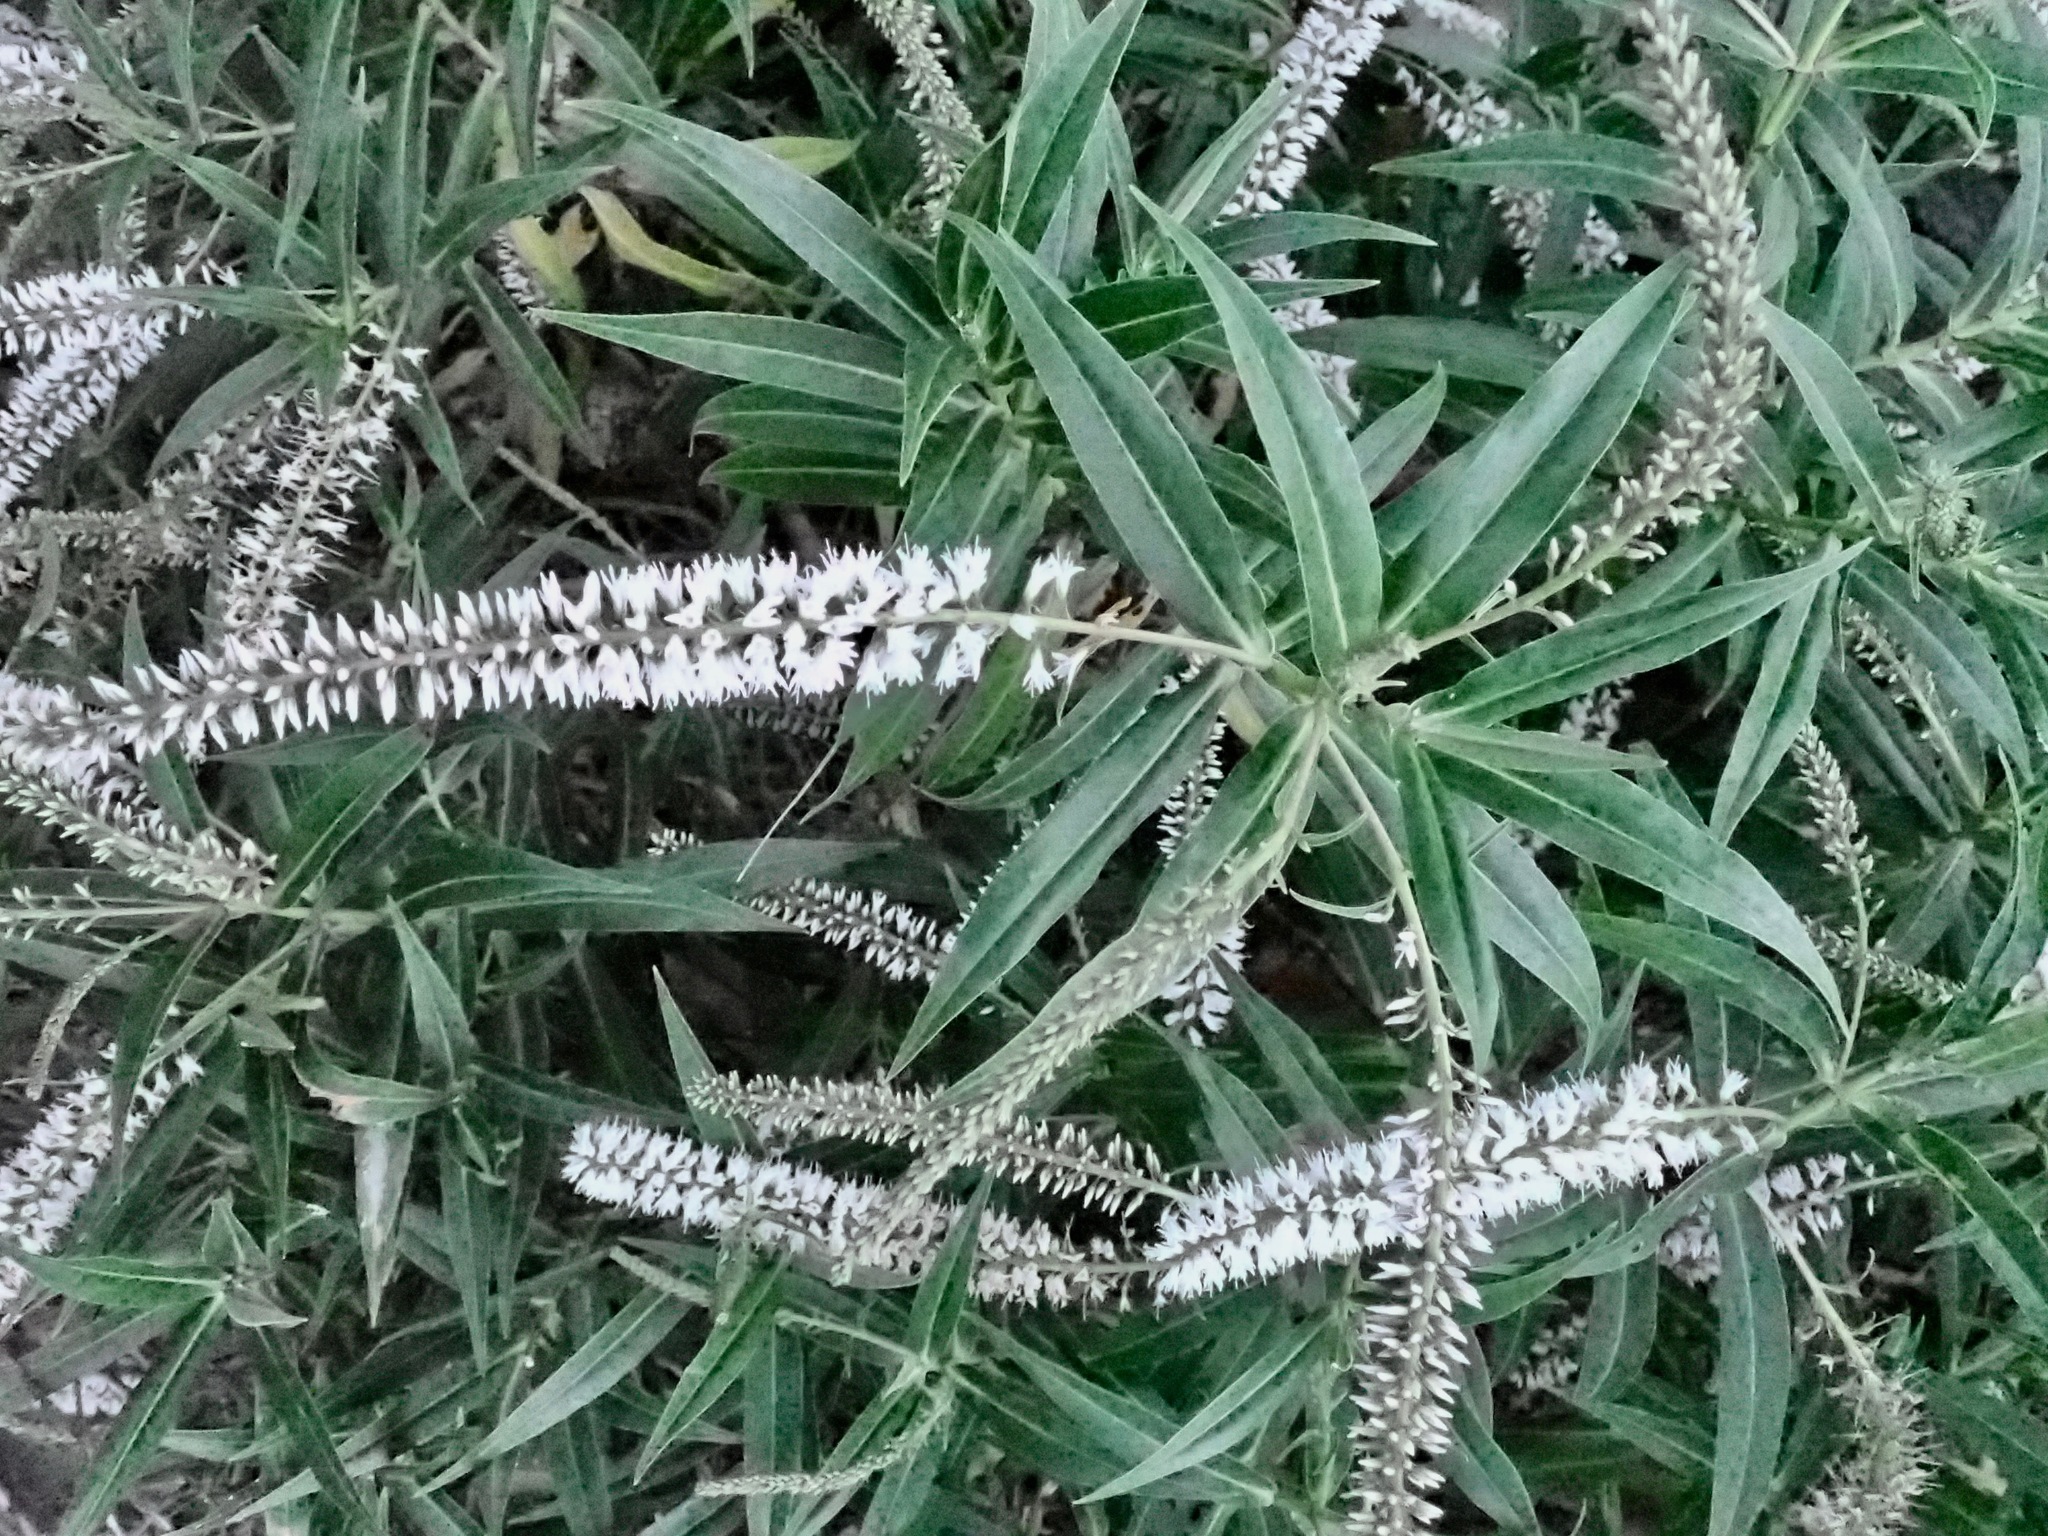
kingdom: Plantae
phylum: Tracheophyta
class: Magnoliopsida
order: Lamiales
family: Plantaginaceae
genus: Veronica
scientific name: Veronica salicifolia
